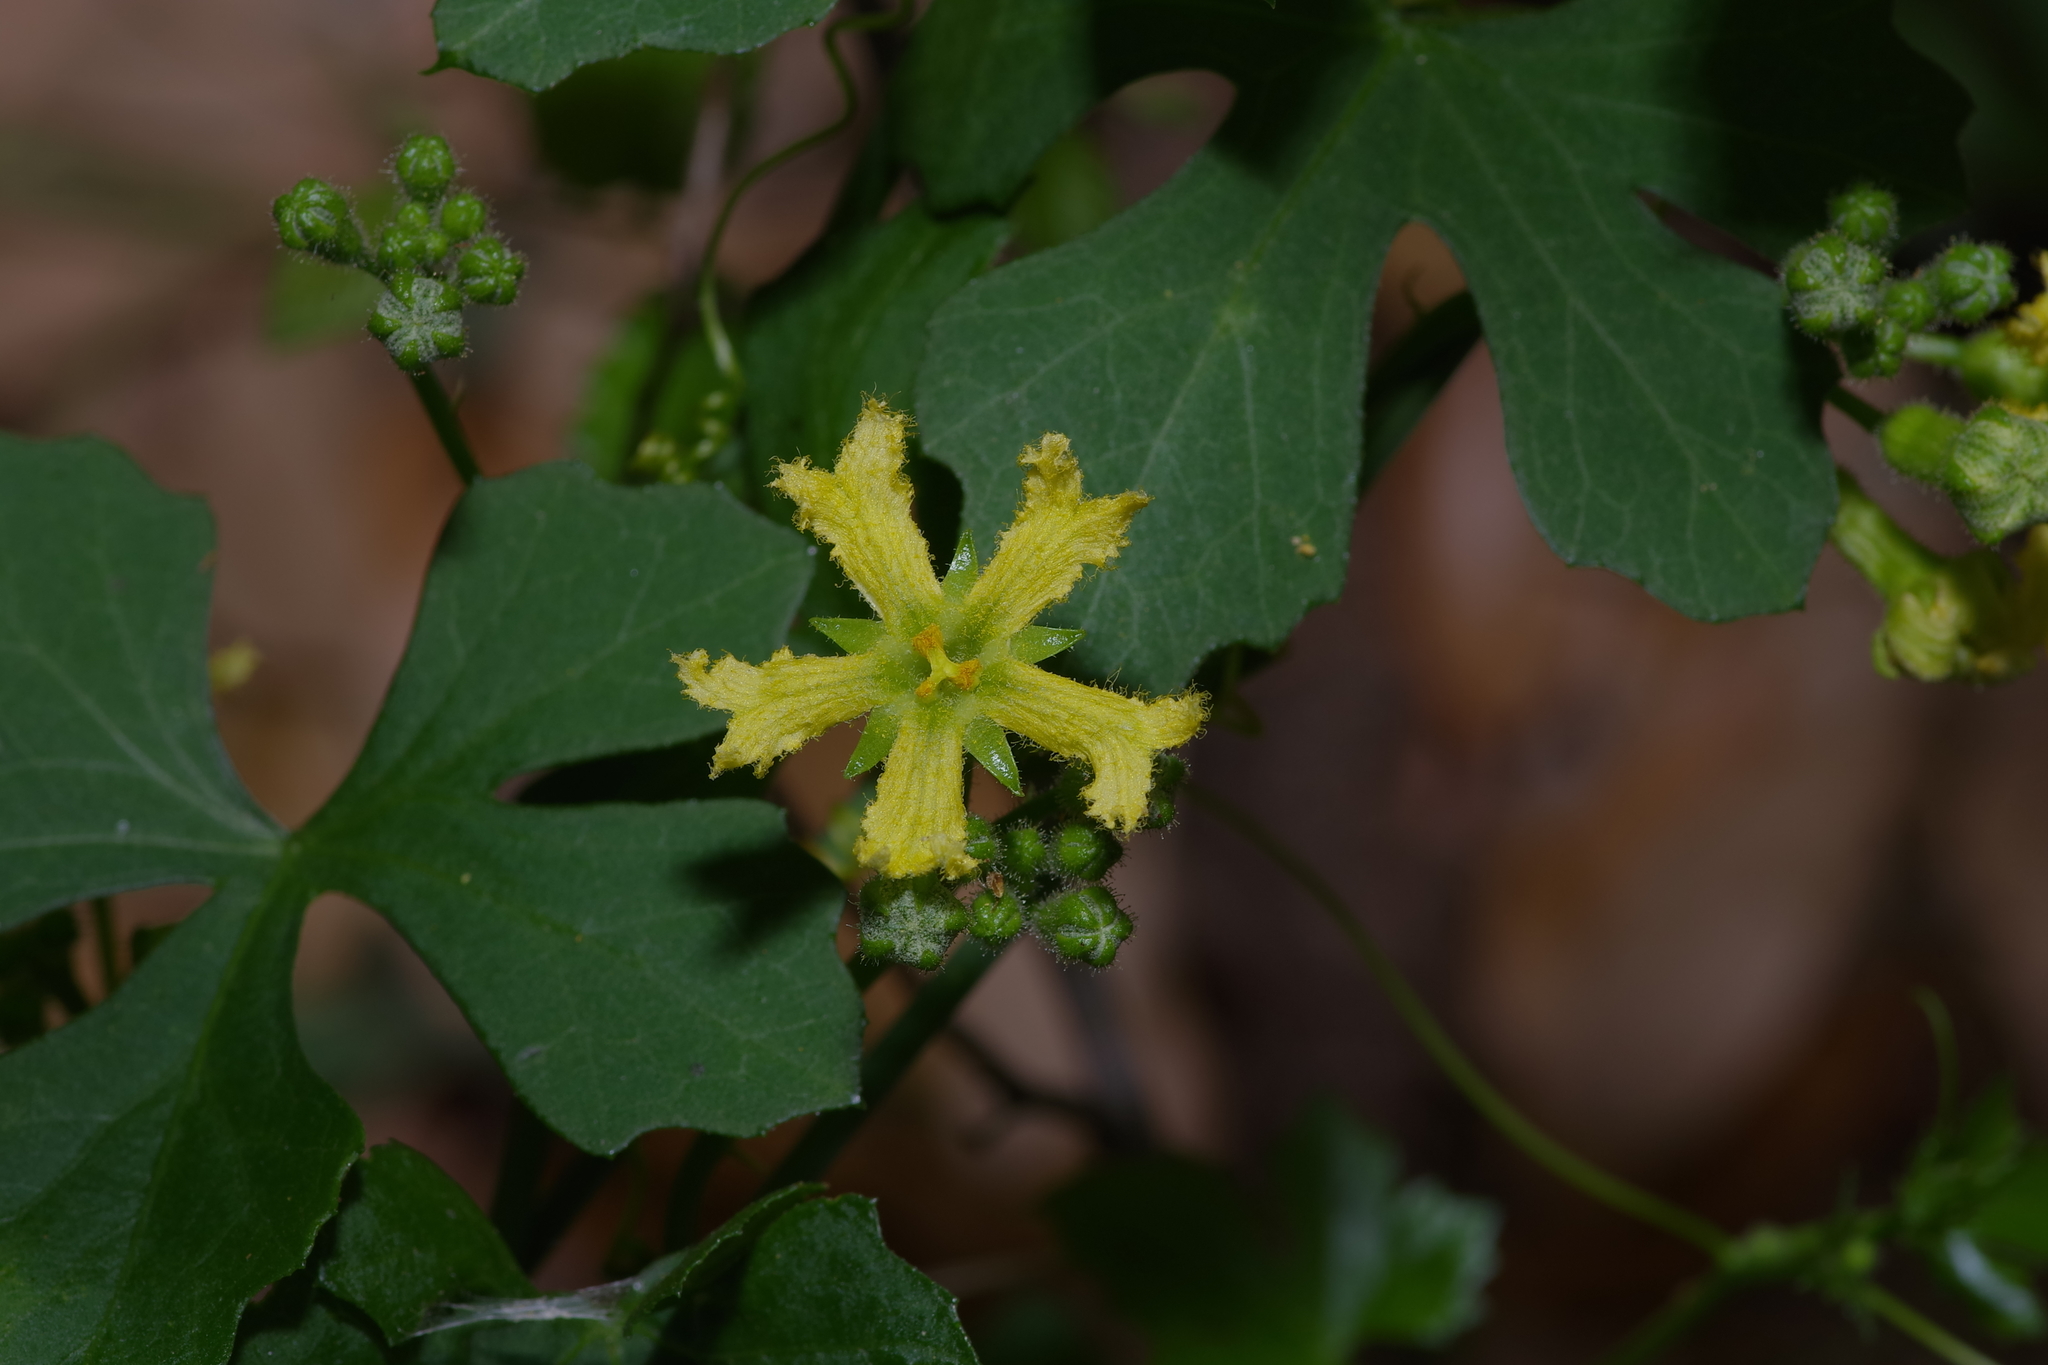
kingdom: Plantae
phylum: Tracheophyta
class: Magnoliopsida
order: Cucurbitales
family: Cucurbitaceae
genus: Ibervillea
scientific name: Ibervillea lindheimeri
